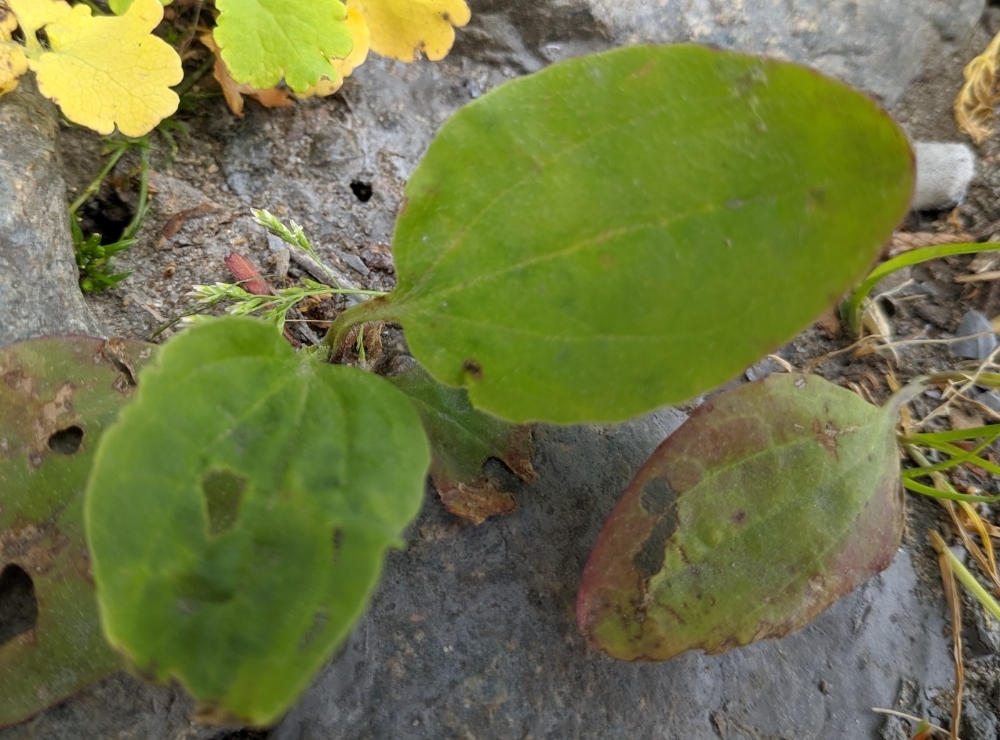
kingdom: Plantae
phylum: Tracheophyta
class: Magnoliopsida
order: Lamiales
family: Plantaginaceae
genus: Plantago
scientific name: Plantago uliginosa
